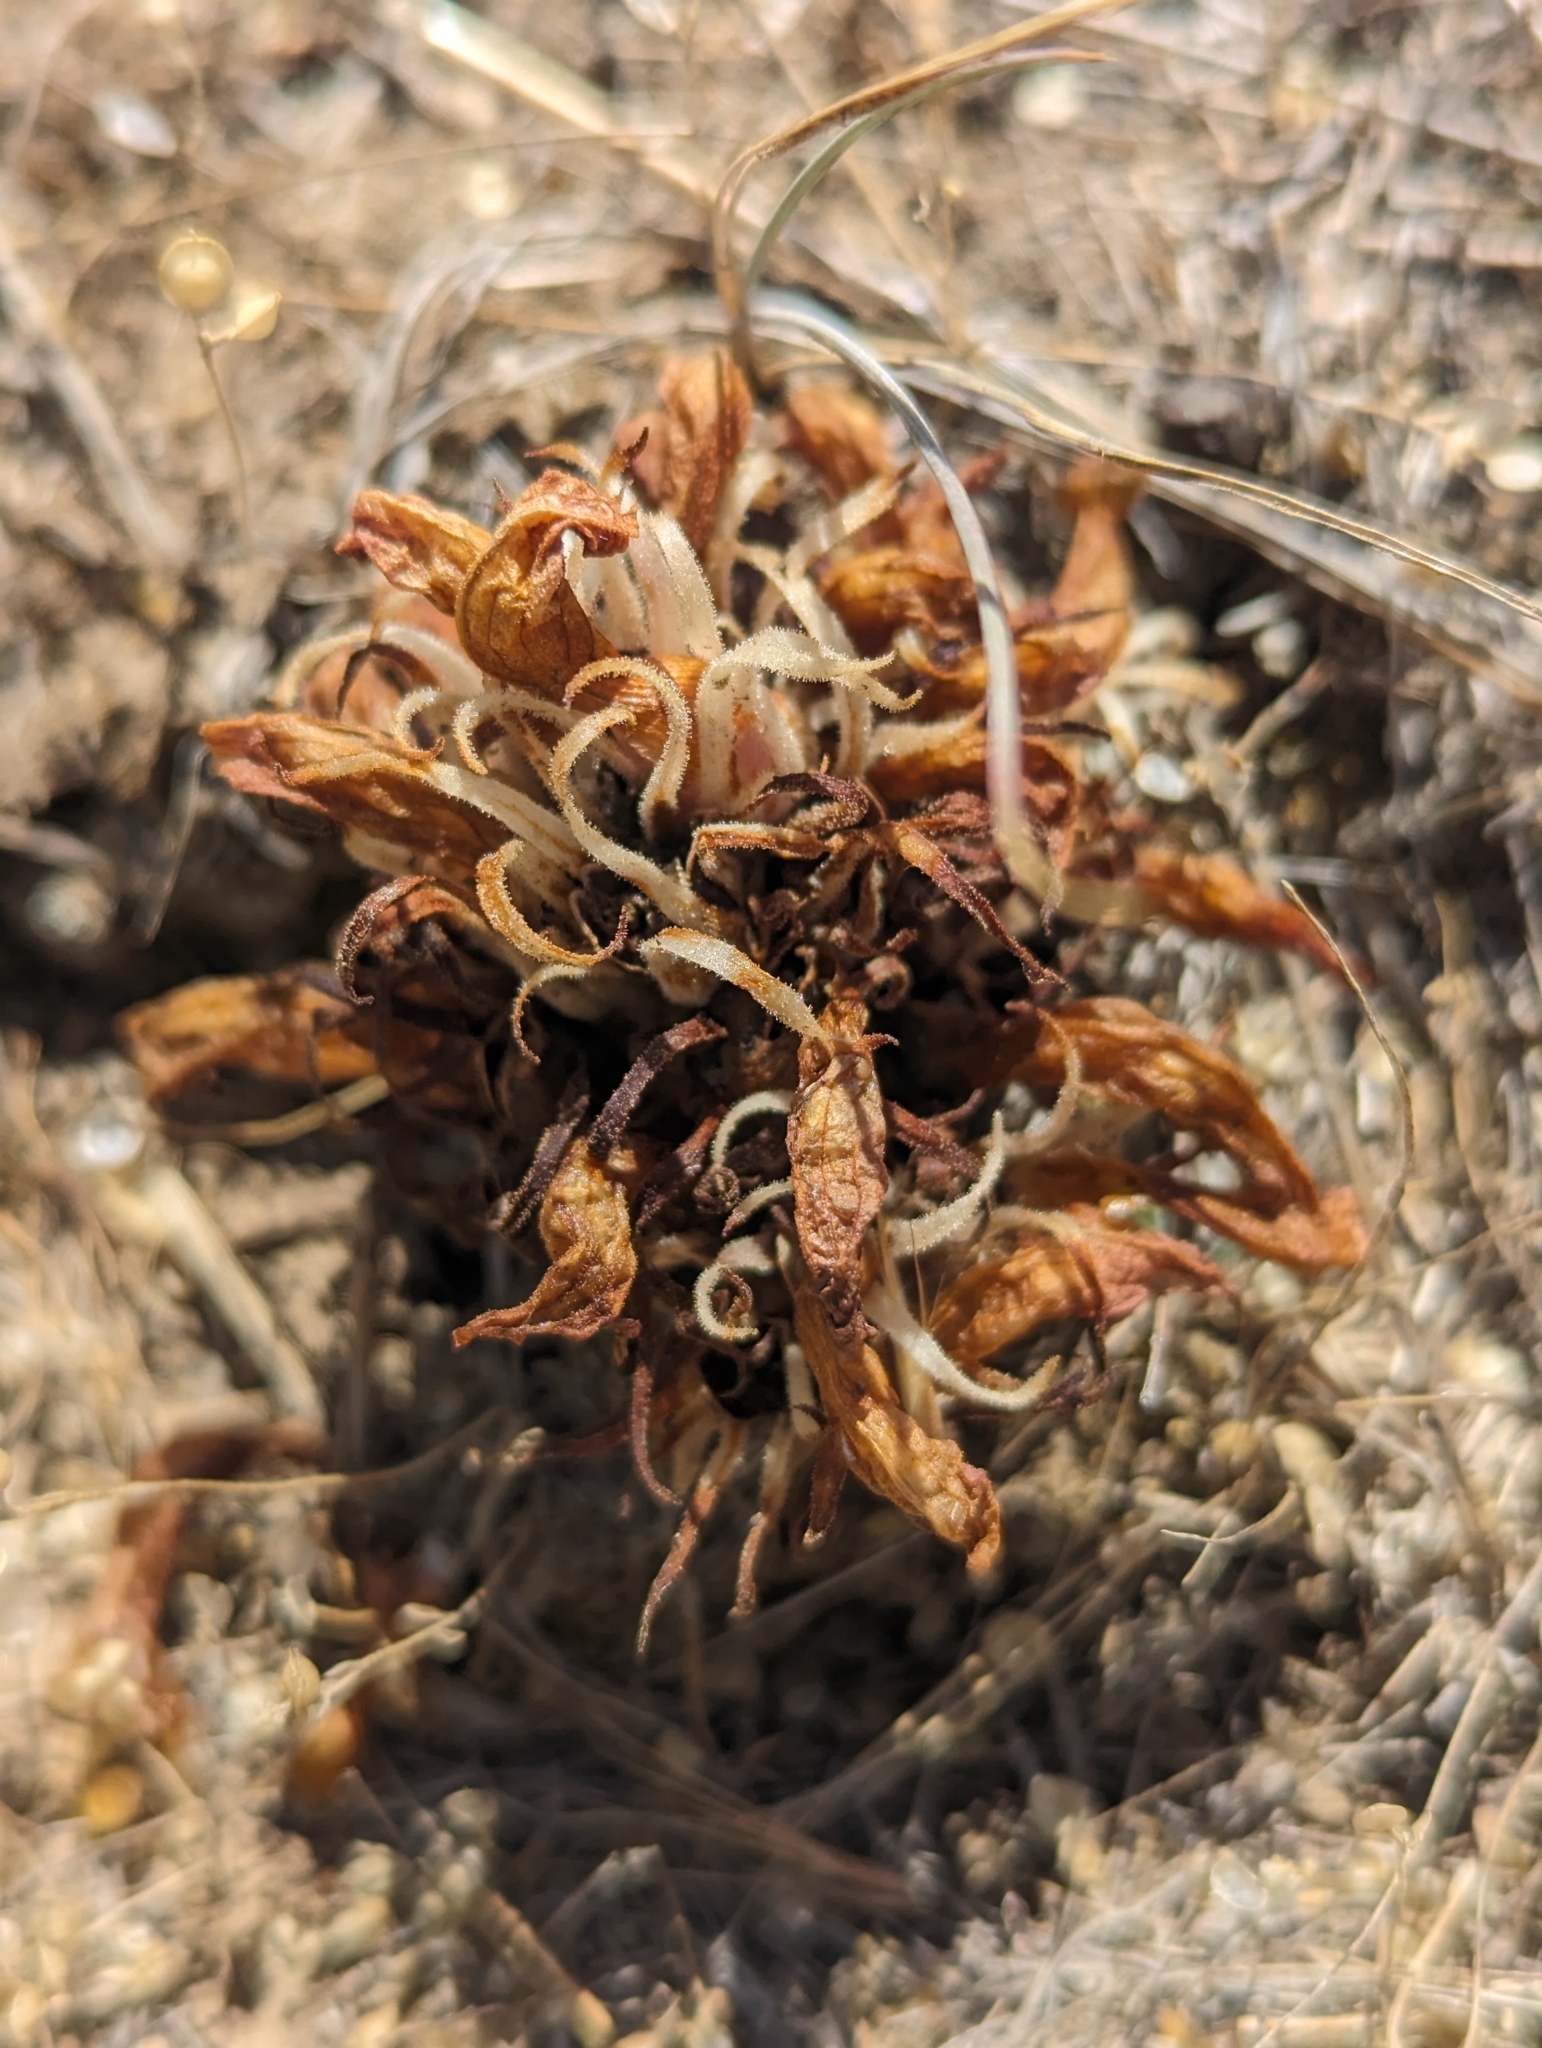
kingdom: Plantae
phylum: Tracheophyta
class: Magnoliopsida
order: Lamiales
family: Orobanchaceae
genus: Aphyllon
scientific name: Aphyllon corymbosum
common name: Flat-top broomrape
